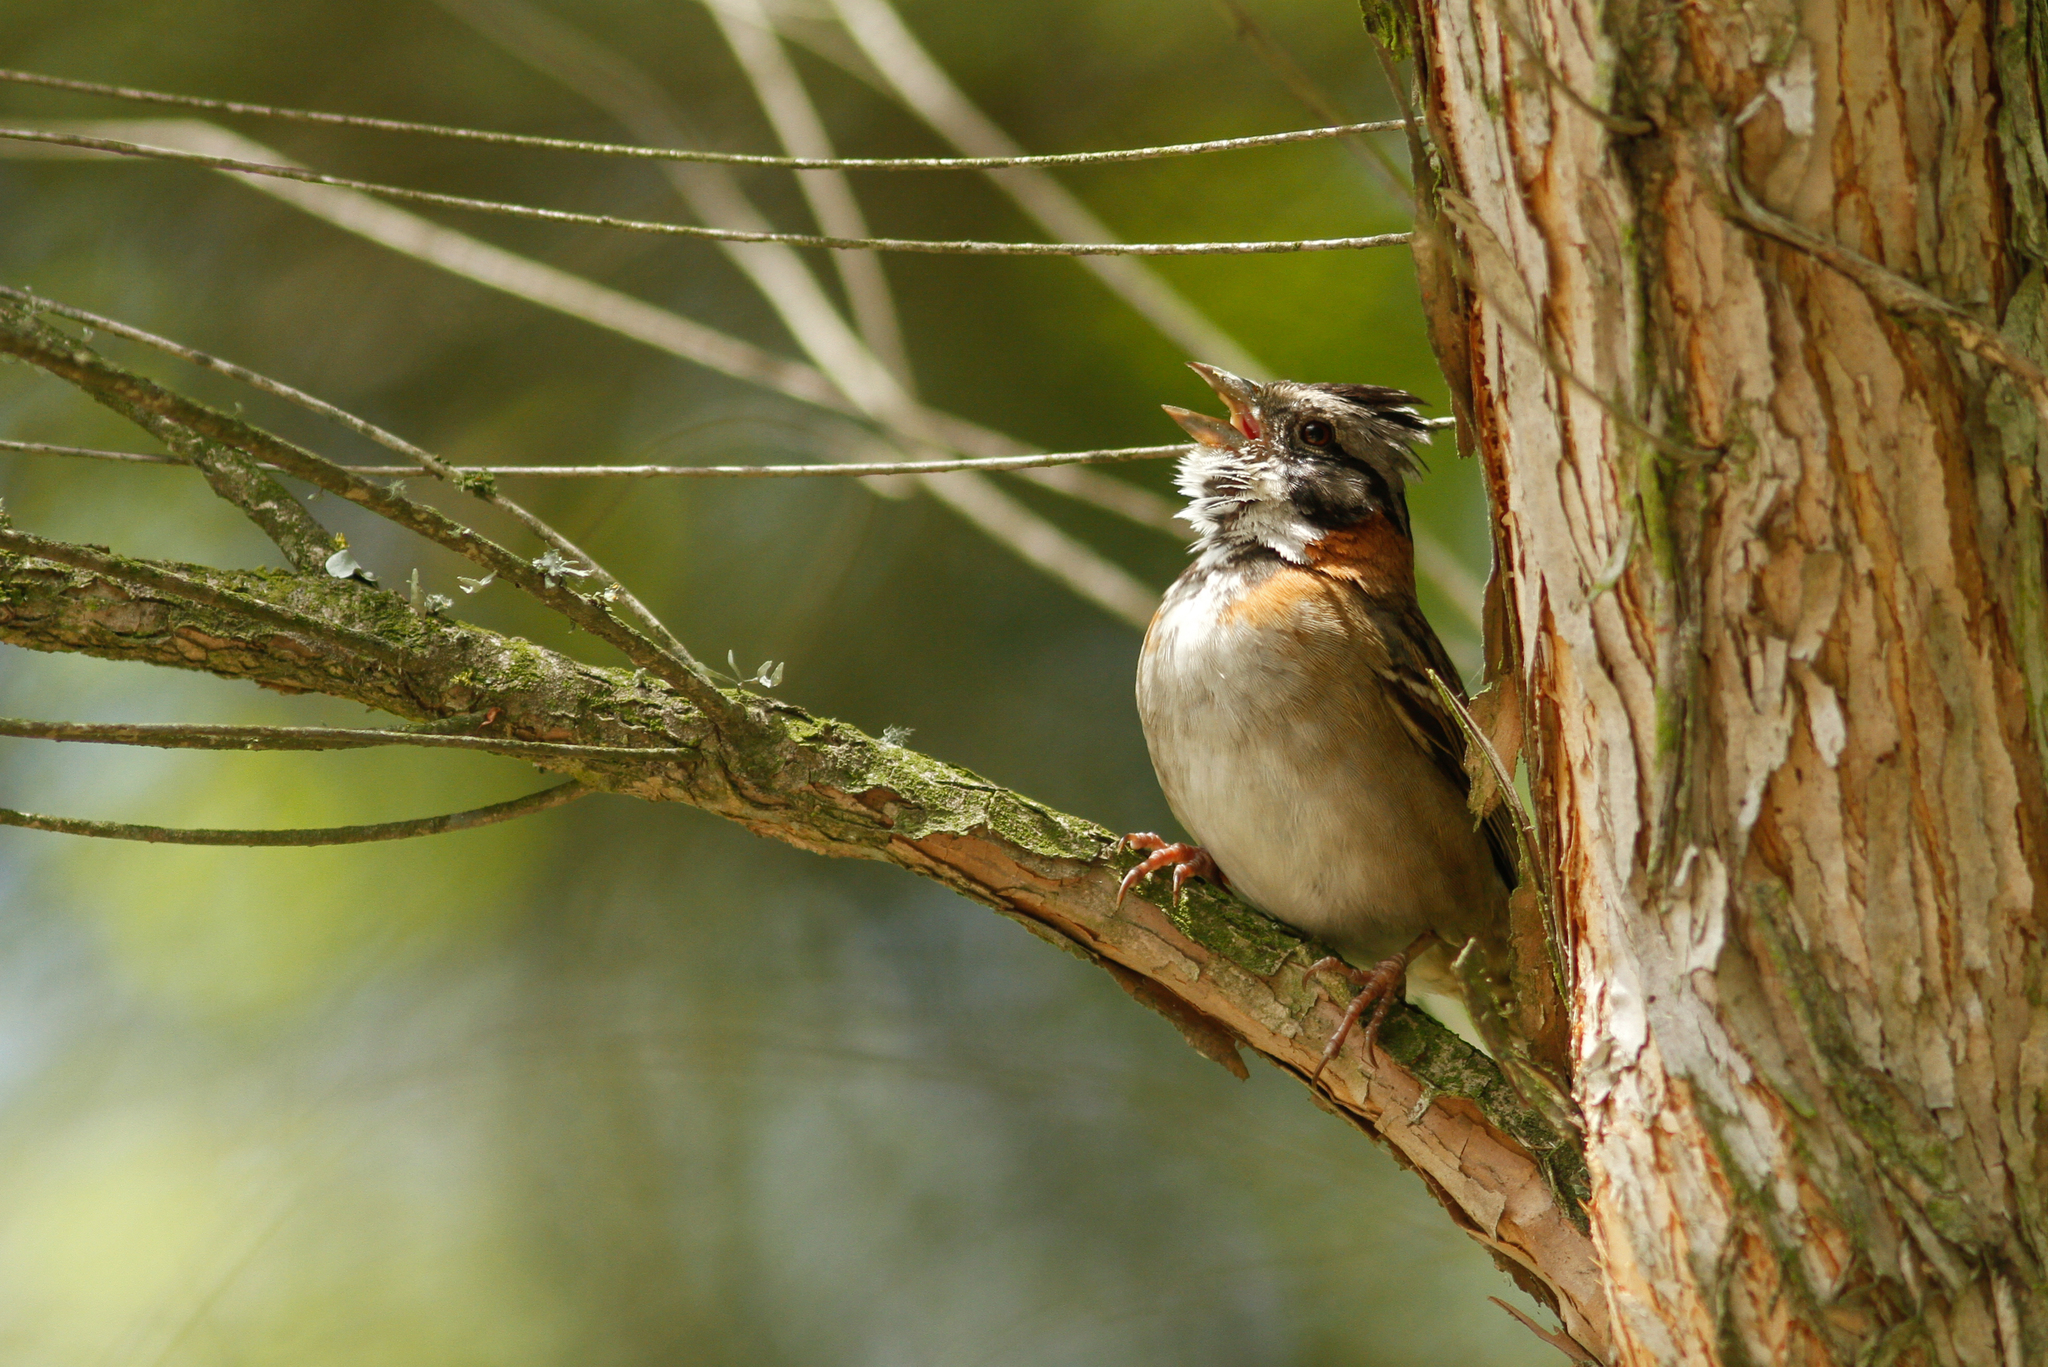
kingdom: Animalia
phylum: Chordata
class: Aves
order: Passeriformes
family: Passerellidae
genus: Zonotrichia
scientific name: Zonotrichia capensis
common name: Rufous-collared sparrow
